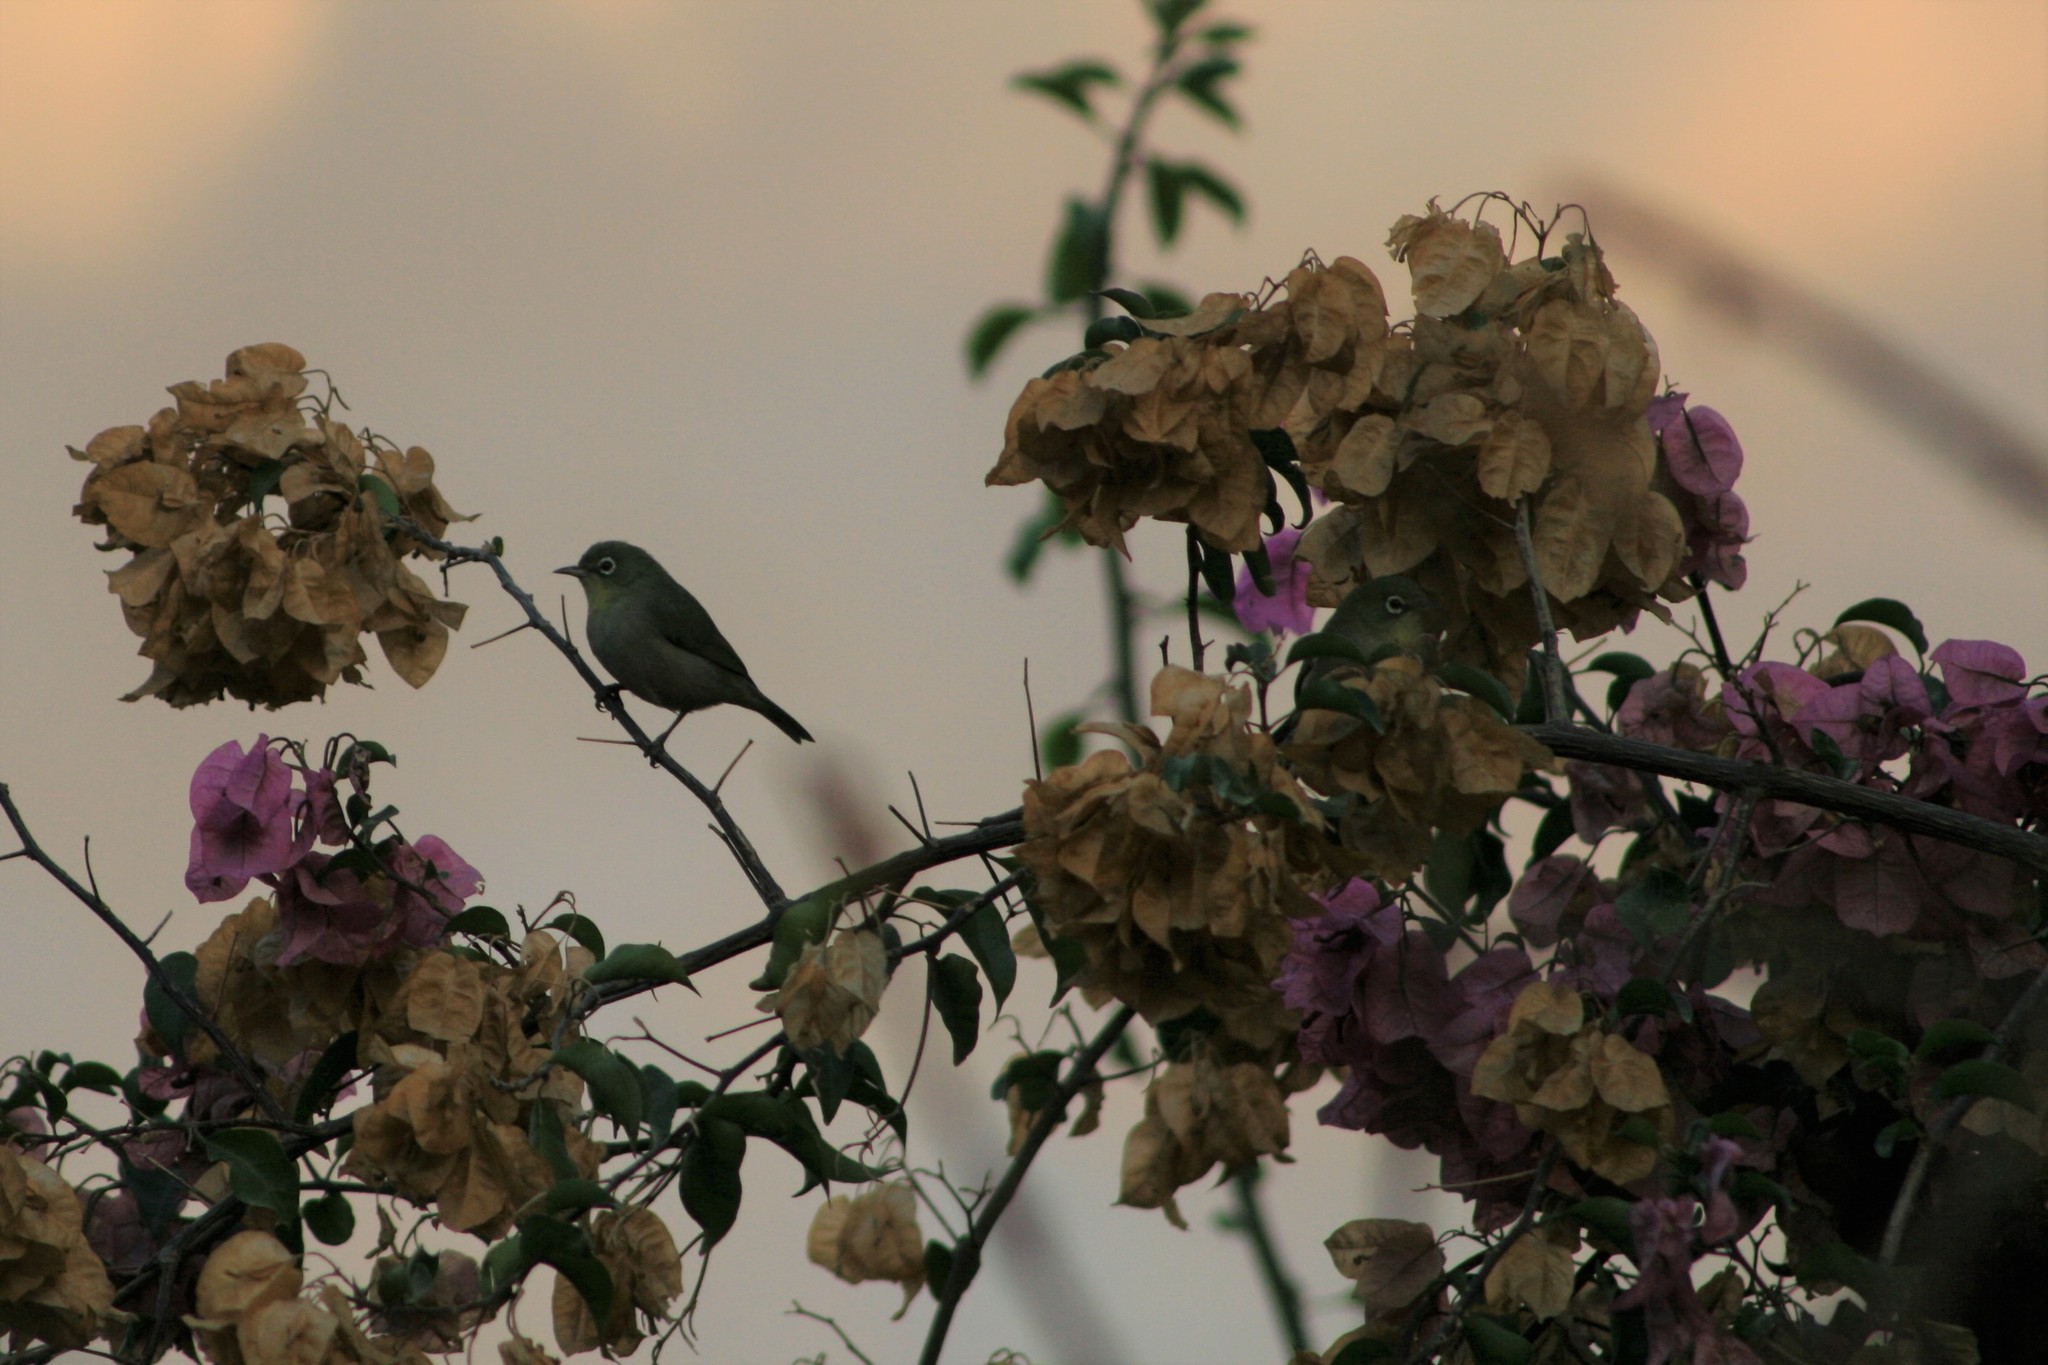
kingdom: Animalia
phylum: Chordata
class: Aves
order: Passeriformes
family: Zosteropidae
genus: Zosterops
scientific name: Zosterops abyssinicus
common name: Abyssinian white-eye
